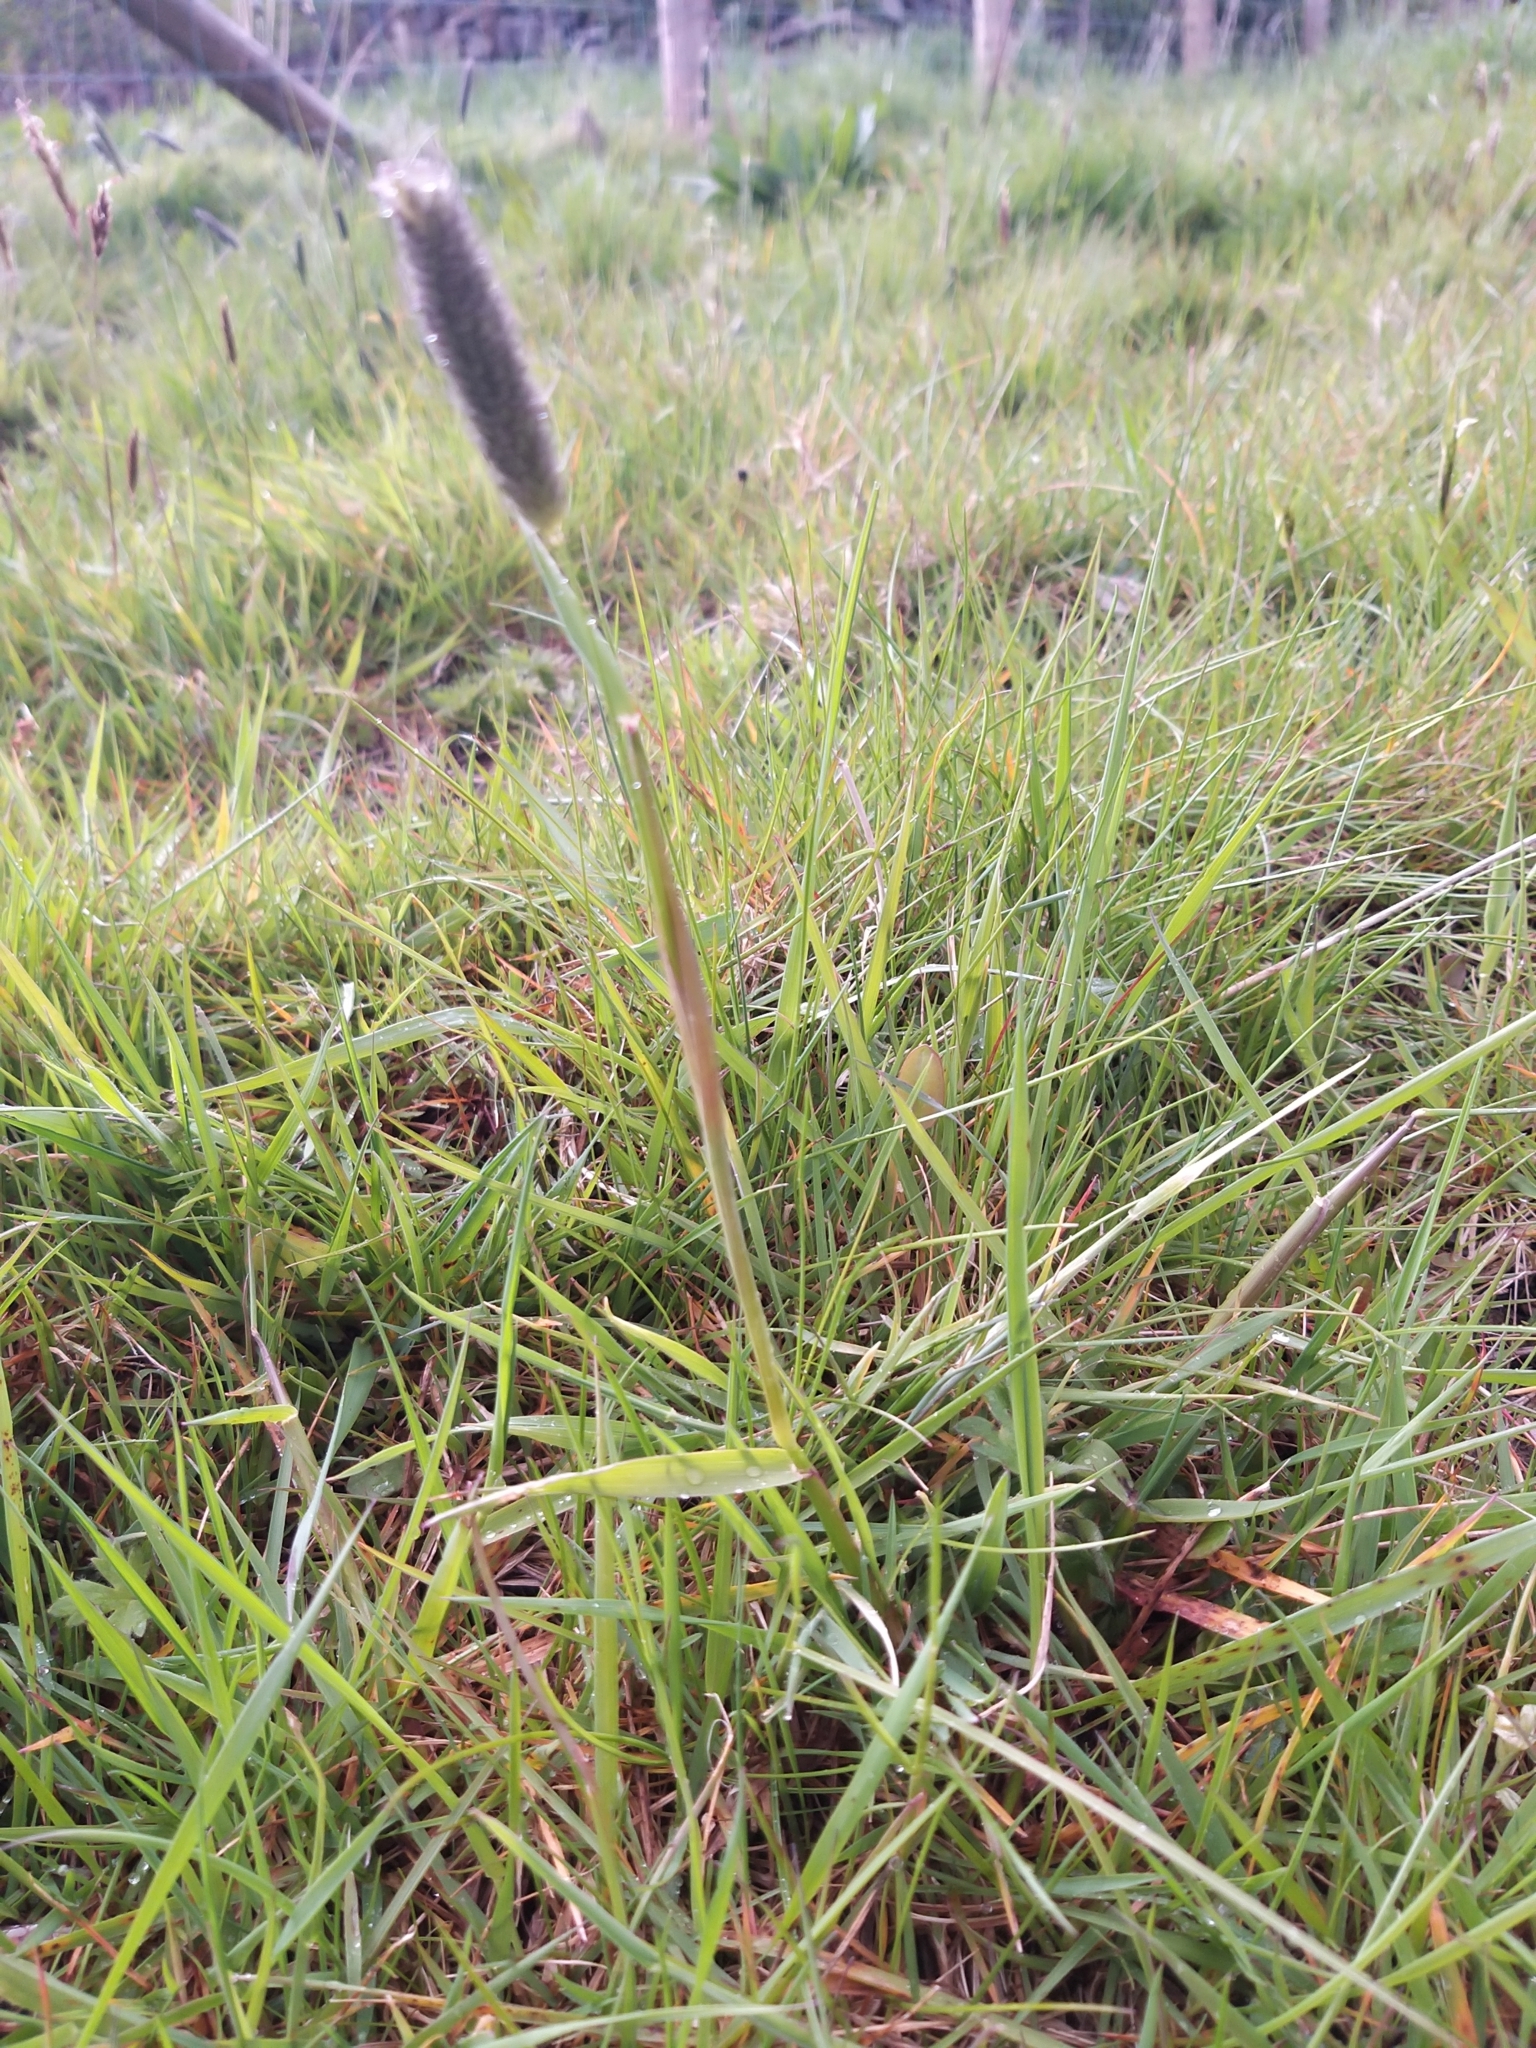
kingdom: Plantae
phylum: Tracheophyta
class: Liliopsida
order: Poales
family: Poaceae
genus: Alopecurus
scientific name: Alopecurus pratensis
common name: Meadow foxtail
